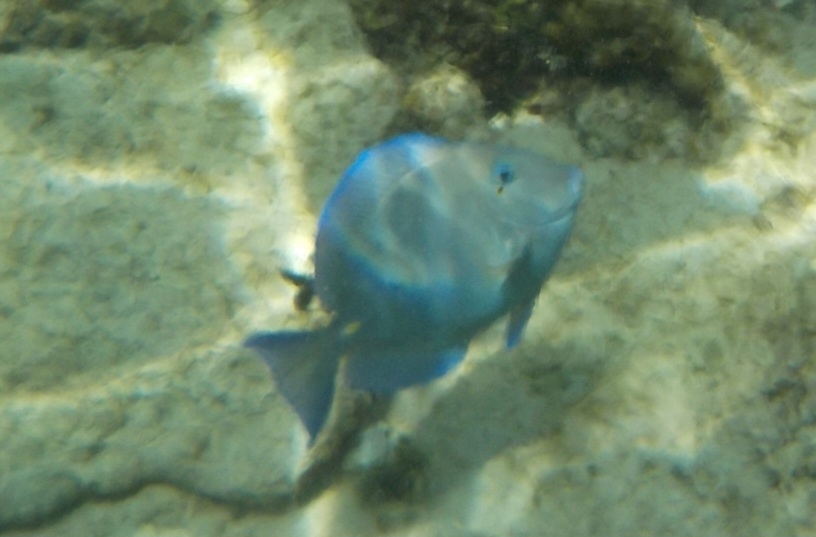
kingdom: Animalia
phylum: Chordata
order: Perciformes
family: Acanthuridae
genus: Acanthurus
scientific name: Acanthurus coeruleus
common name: Blue tang
